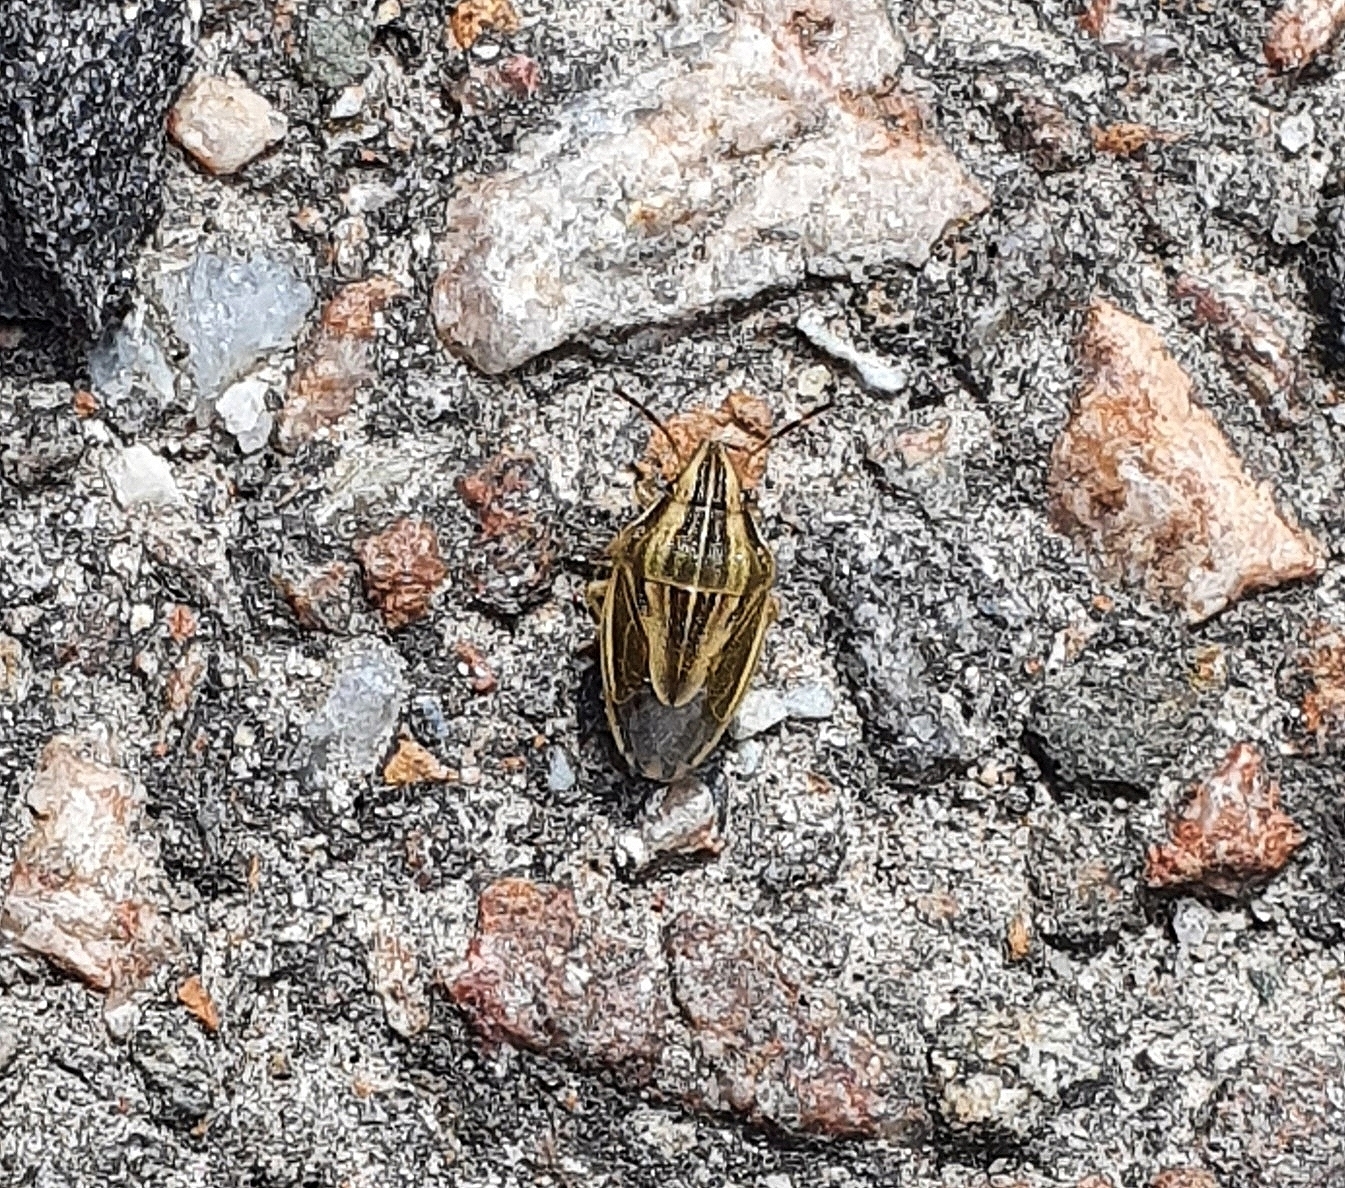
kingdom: Animalia
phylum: Arthropoda
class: Insecta
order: Hemiptera
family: Pentatomidae
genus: Aelia
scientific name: Aelia acuminata
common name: Bishop's mitre
